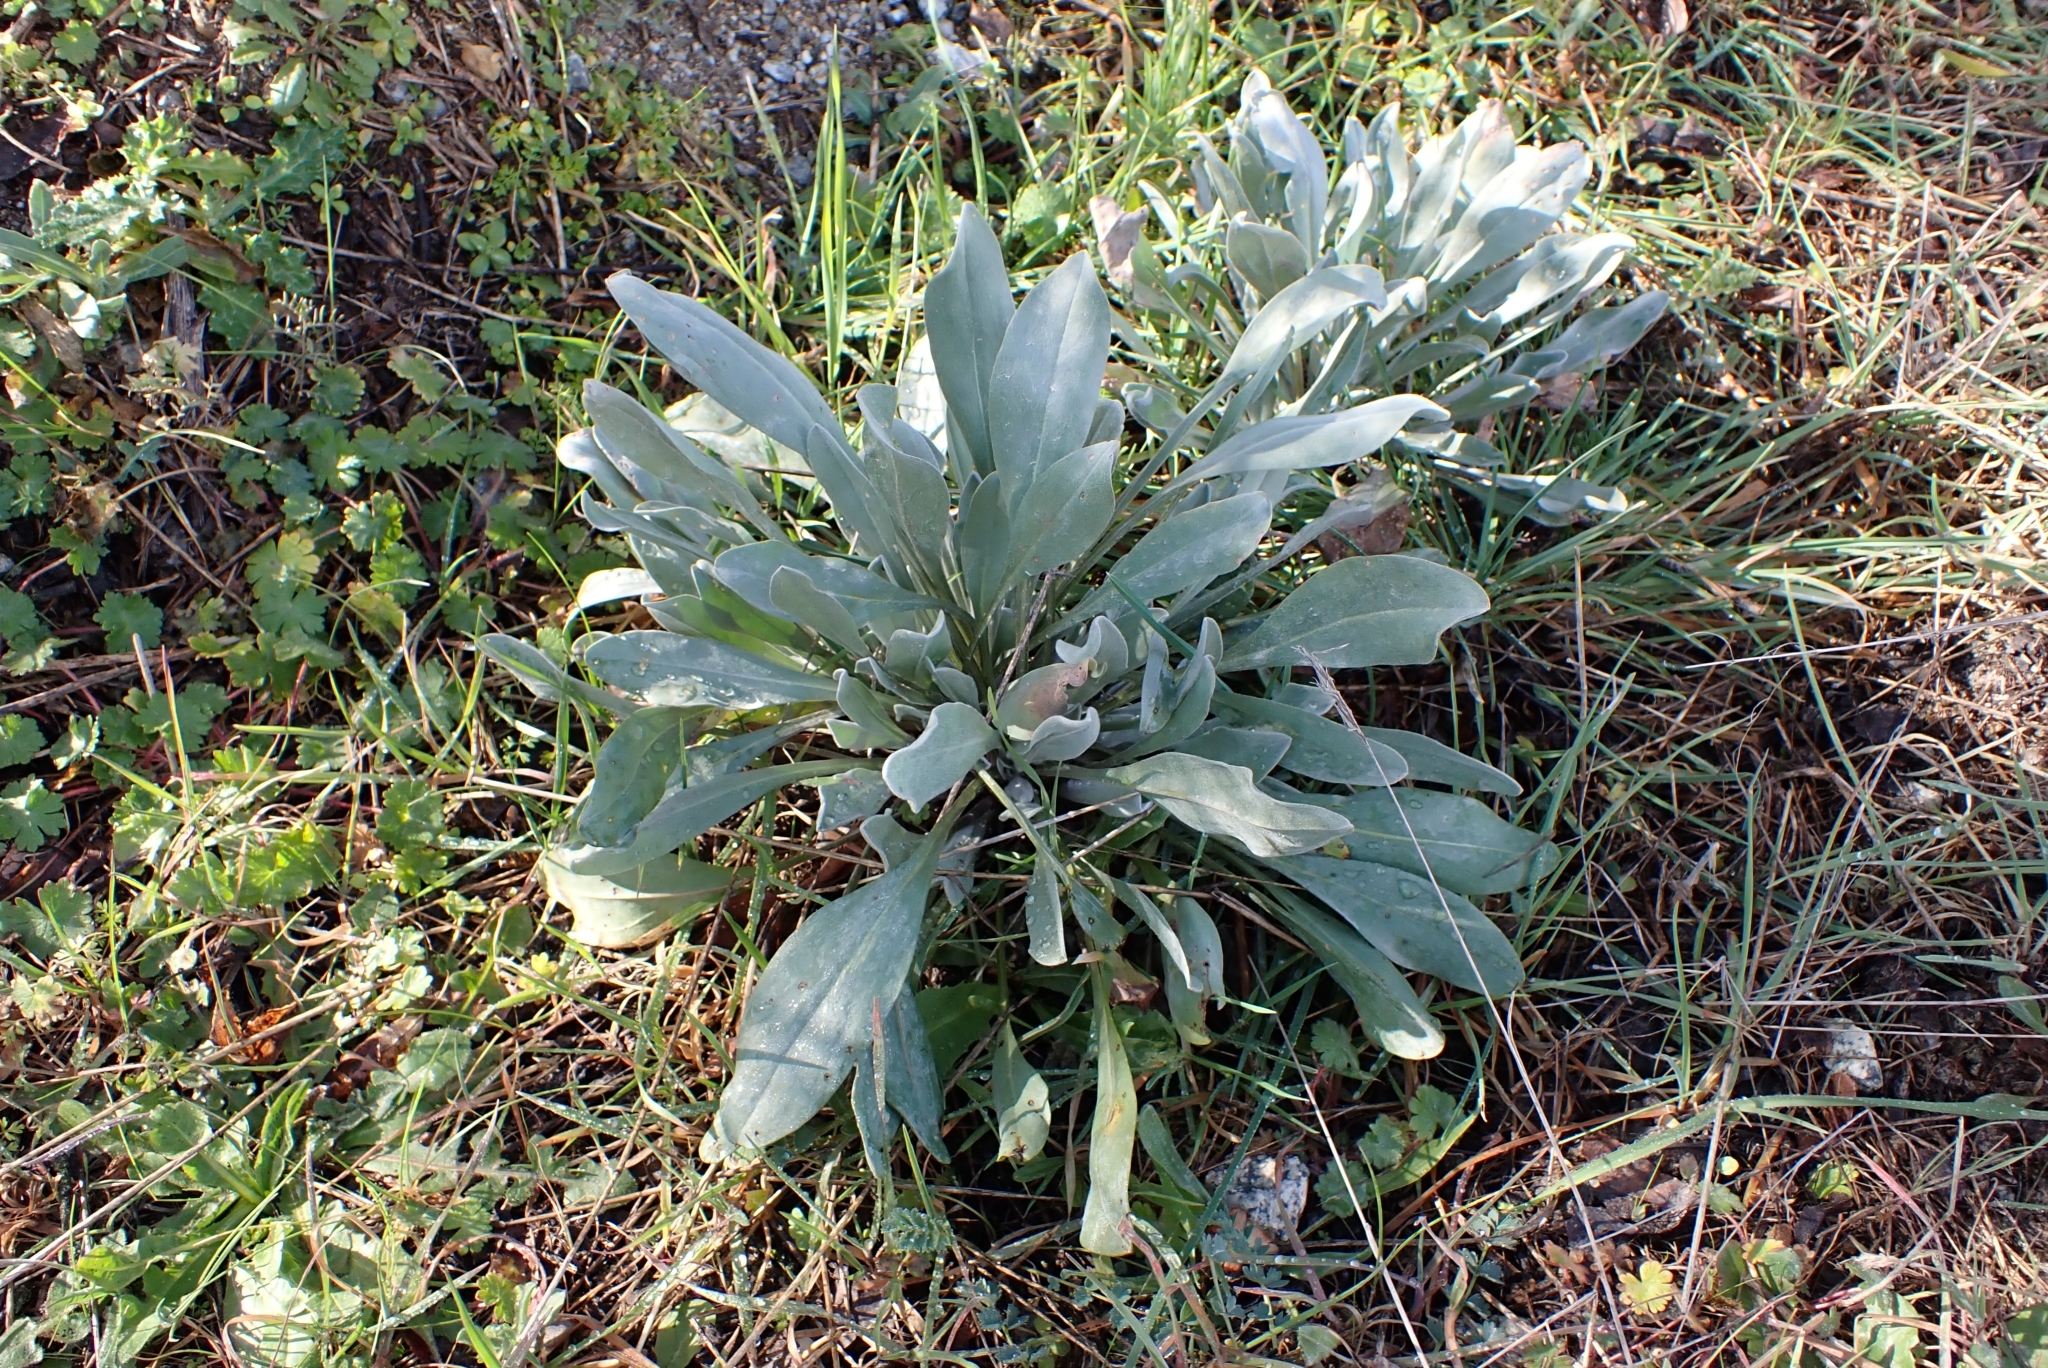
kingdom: Plantae
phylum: Tracheophyta
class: Magnoliopsida
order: Boraginales
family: Boraginaceae
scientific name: Boraginaceae
